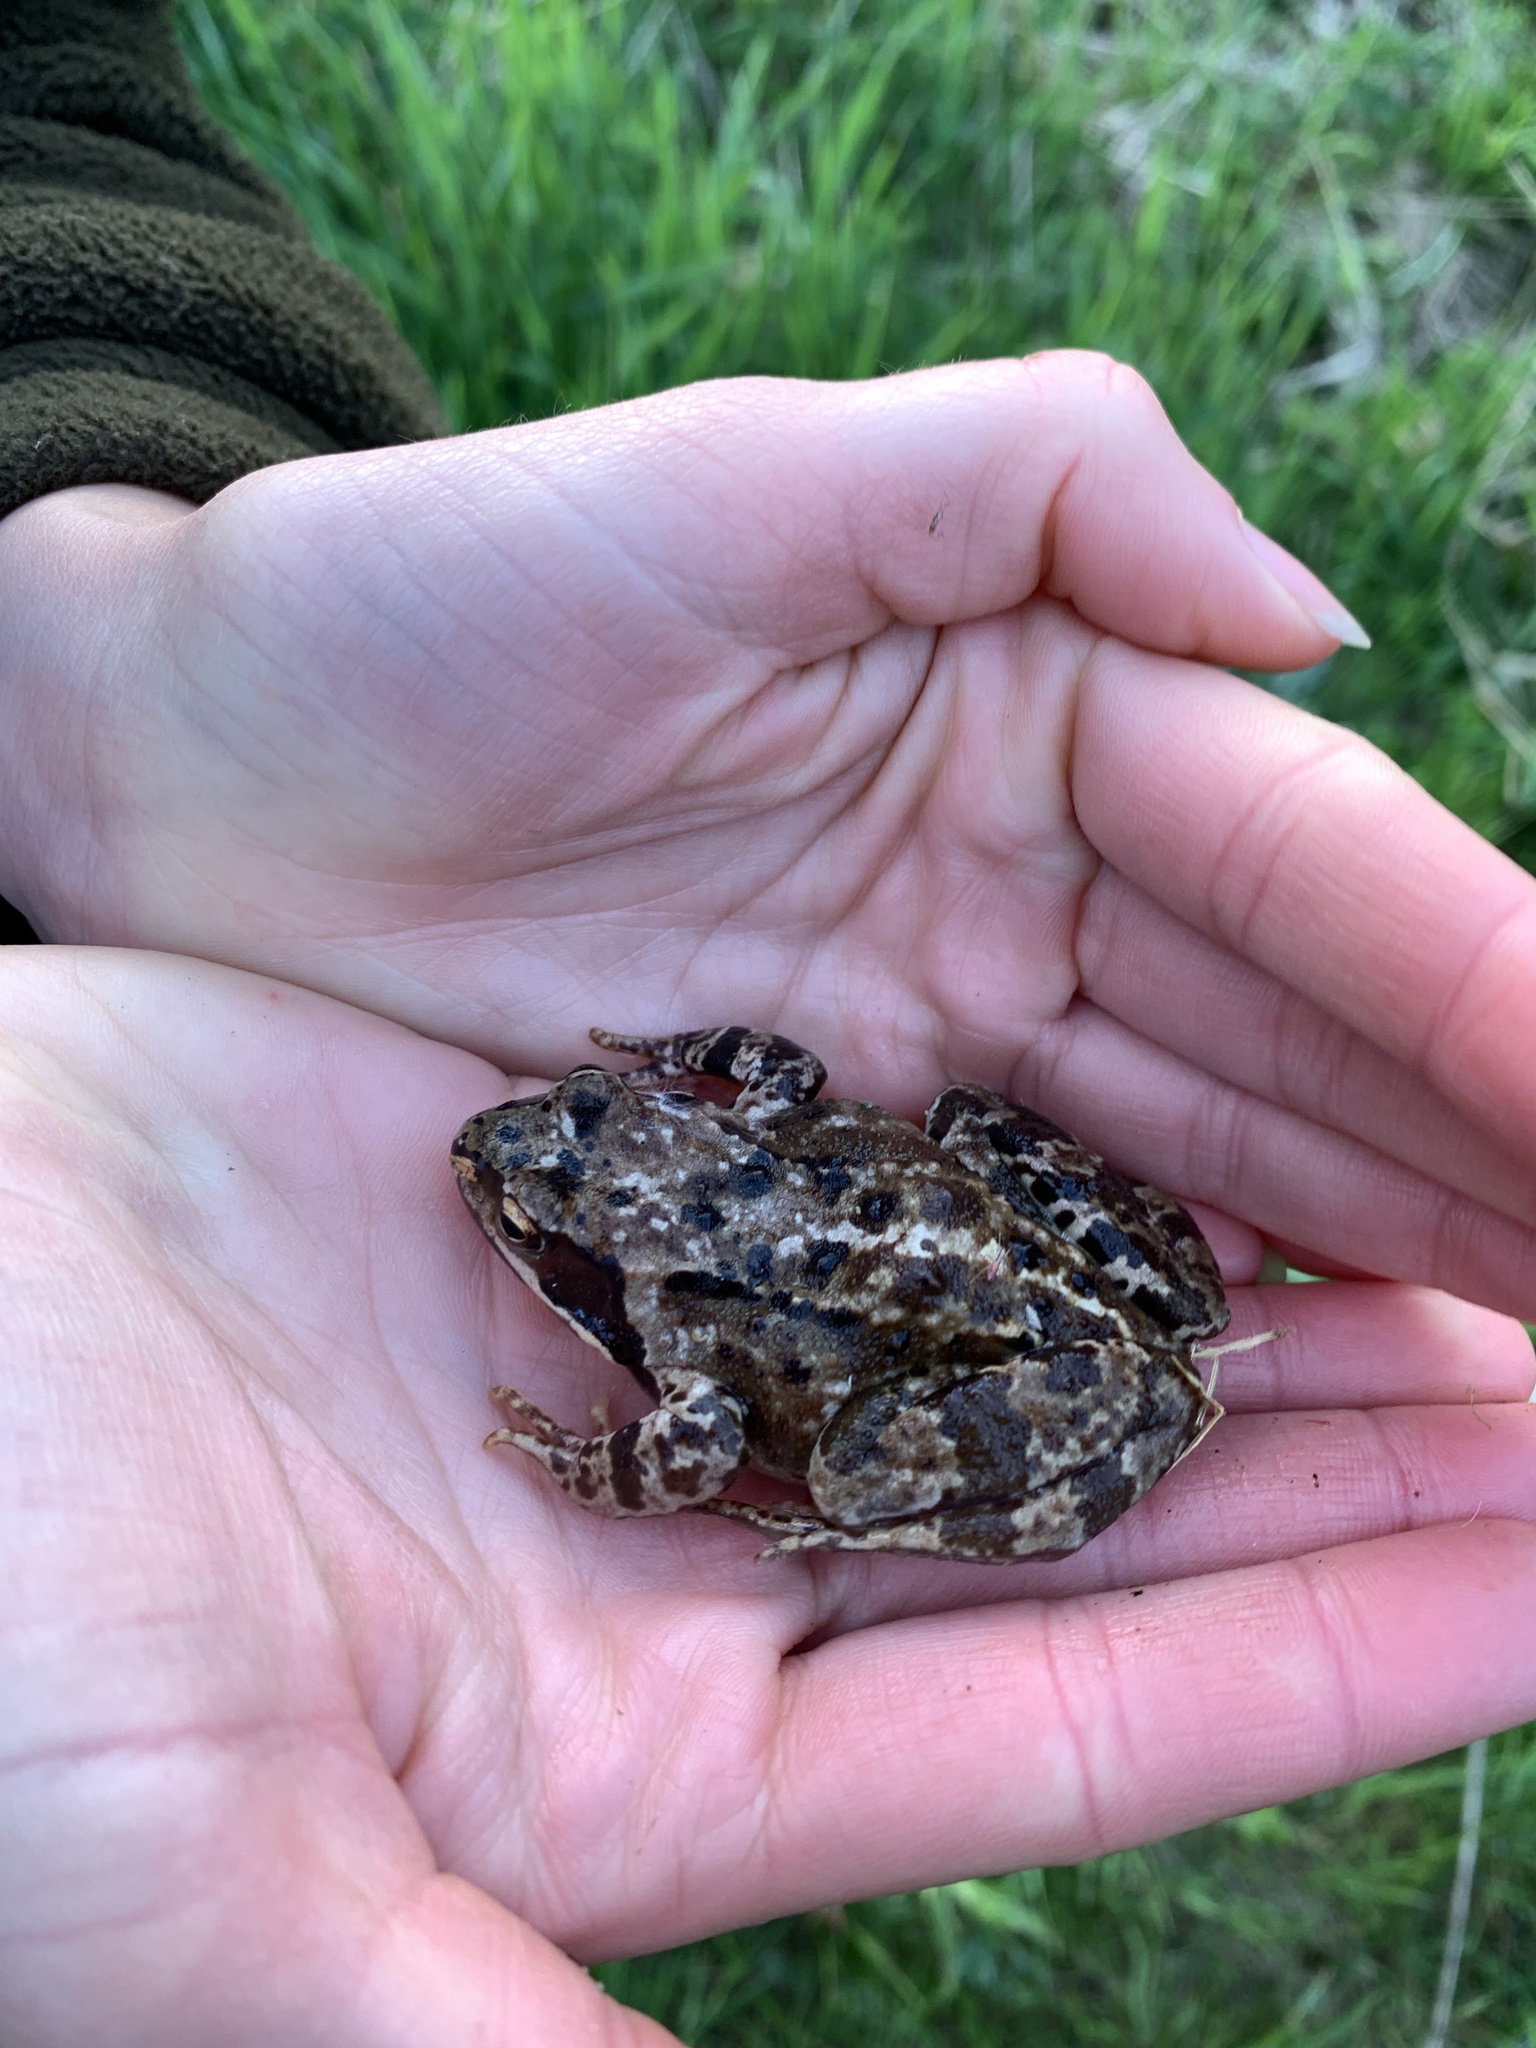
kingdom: Animalia
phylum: Chordata
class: Amphibia
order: Anura
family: Ranidae
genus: Rana
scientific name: Rana temporaria
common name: Common frog
